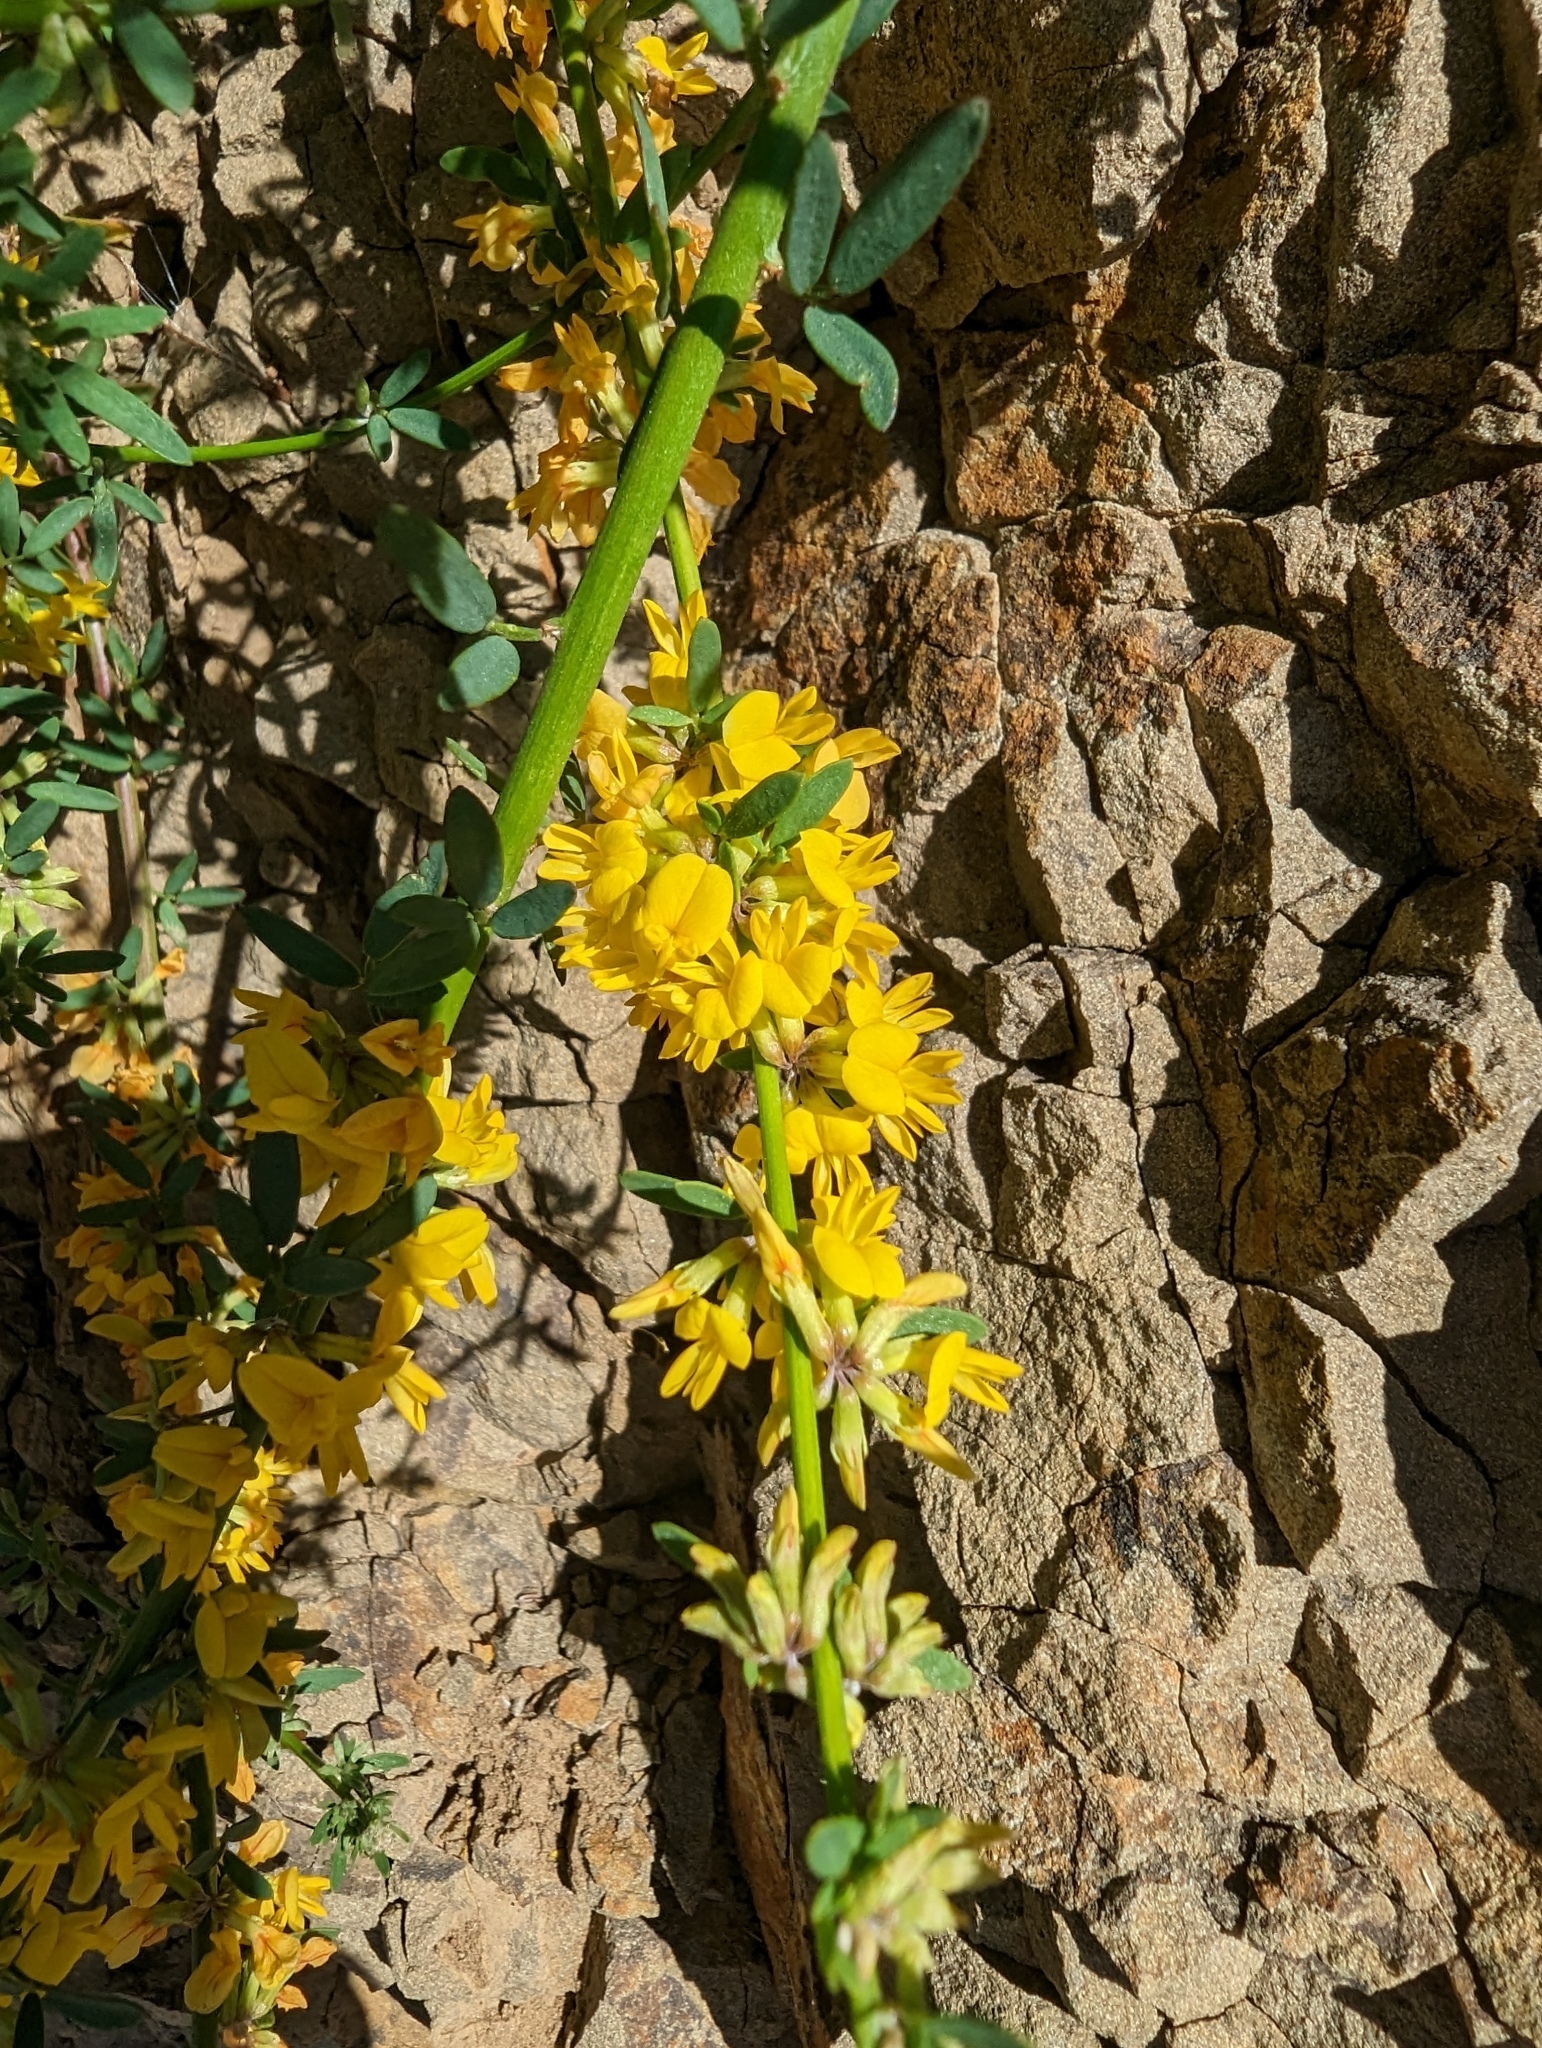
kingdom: Plantae
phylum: Tracheophyta
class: Magnoliopsida
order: Fabales
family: Fabaceae
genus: Acmispon
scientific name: Acmispon glaber
